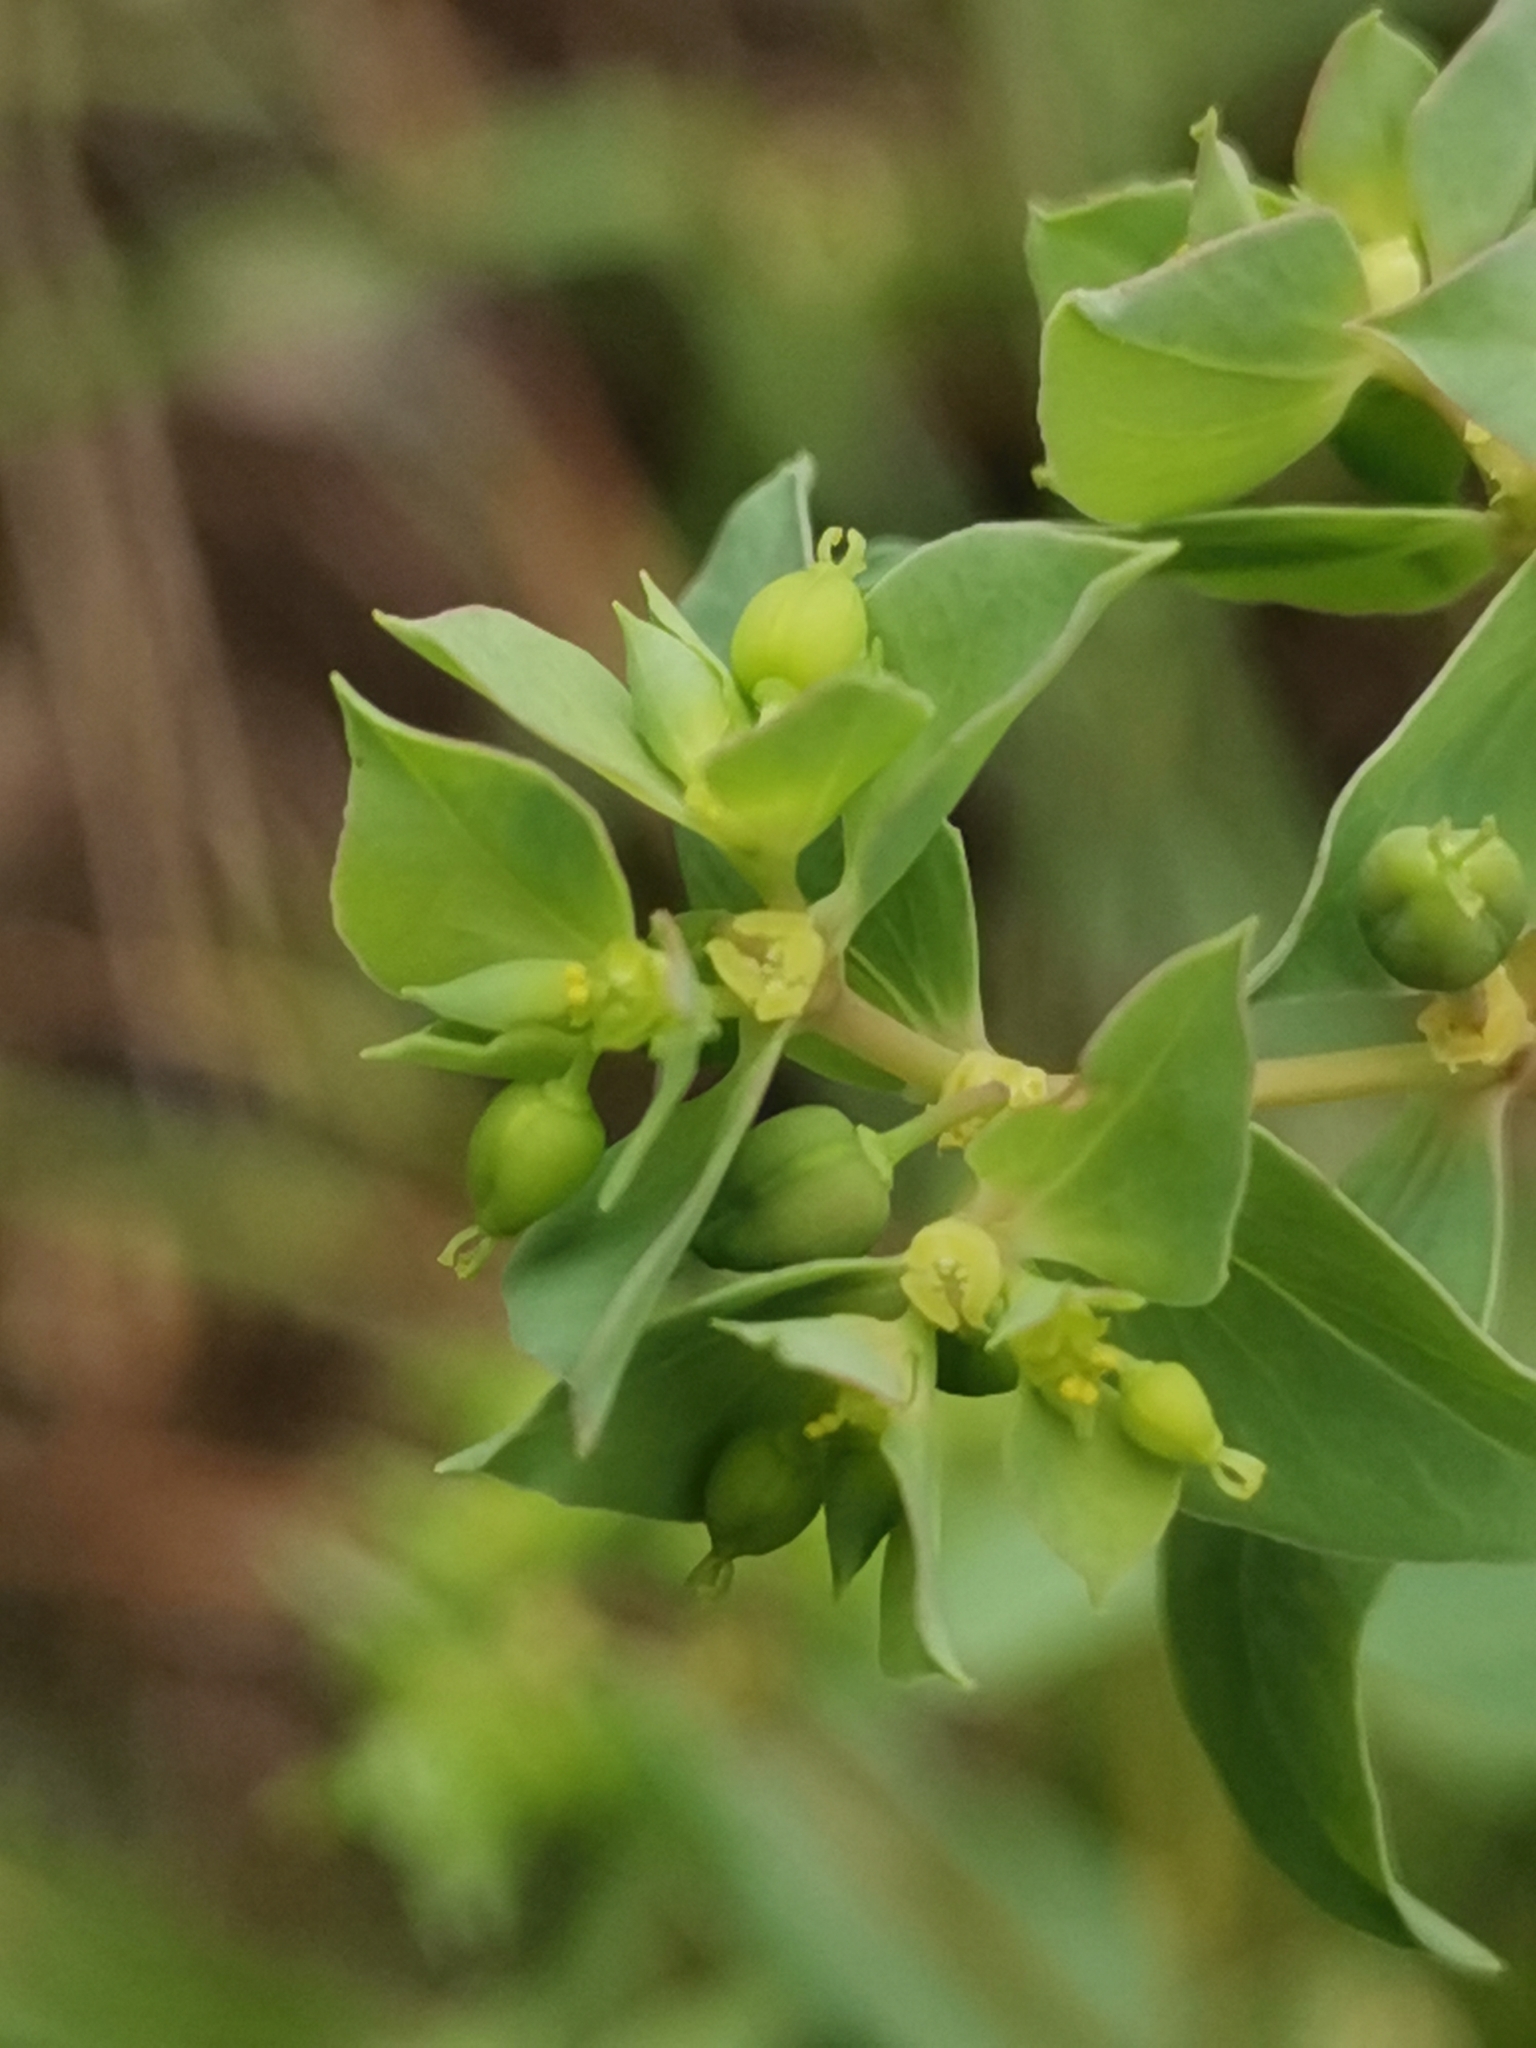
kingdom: Plantae
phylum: Tracheophyta
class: Magnoliopsida
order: Malpighiales
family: Euphorbiaceae
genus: Euphorbia
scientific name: Euphorbia falcata
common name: Sickle spurge
